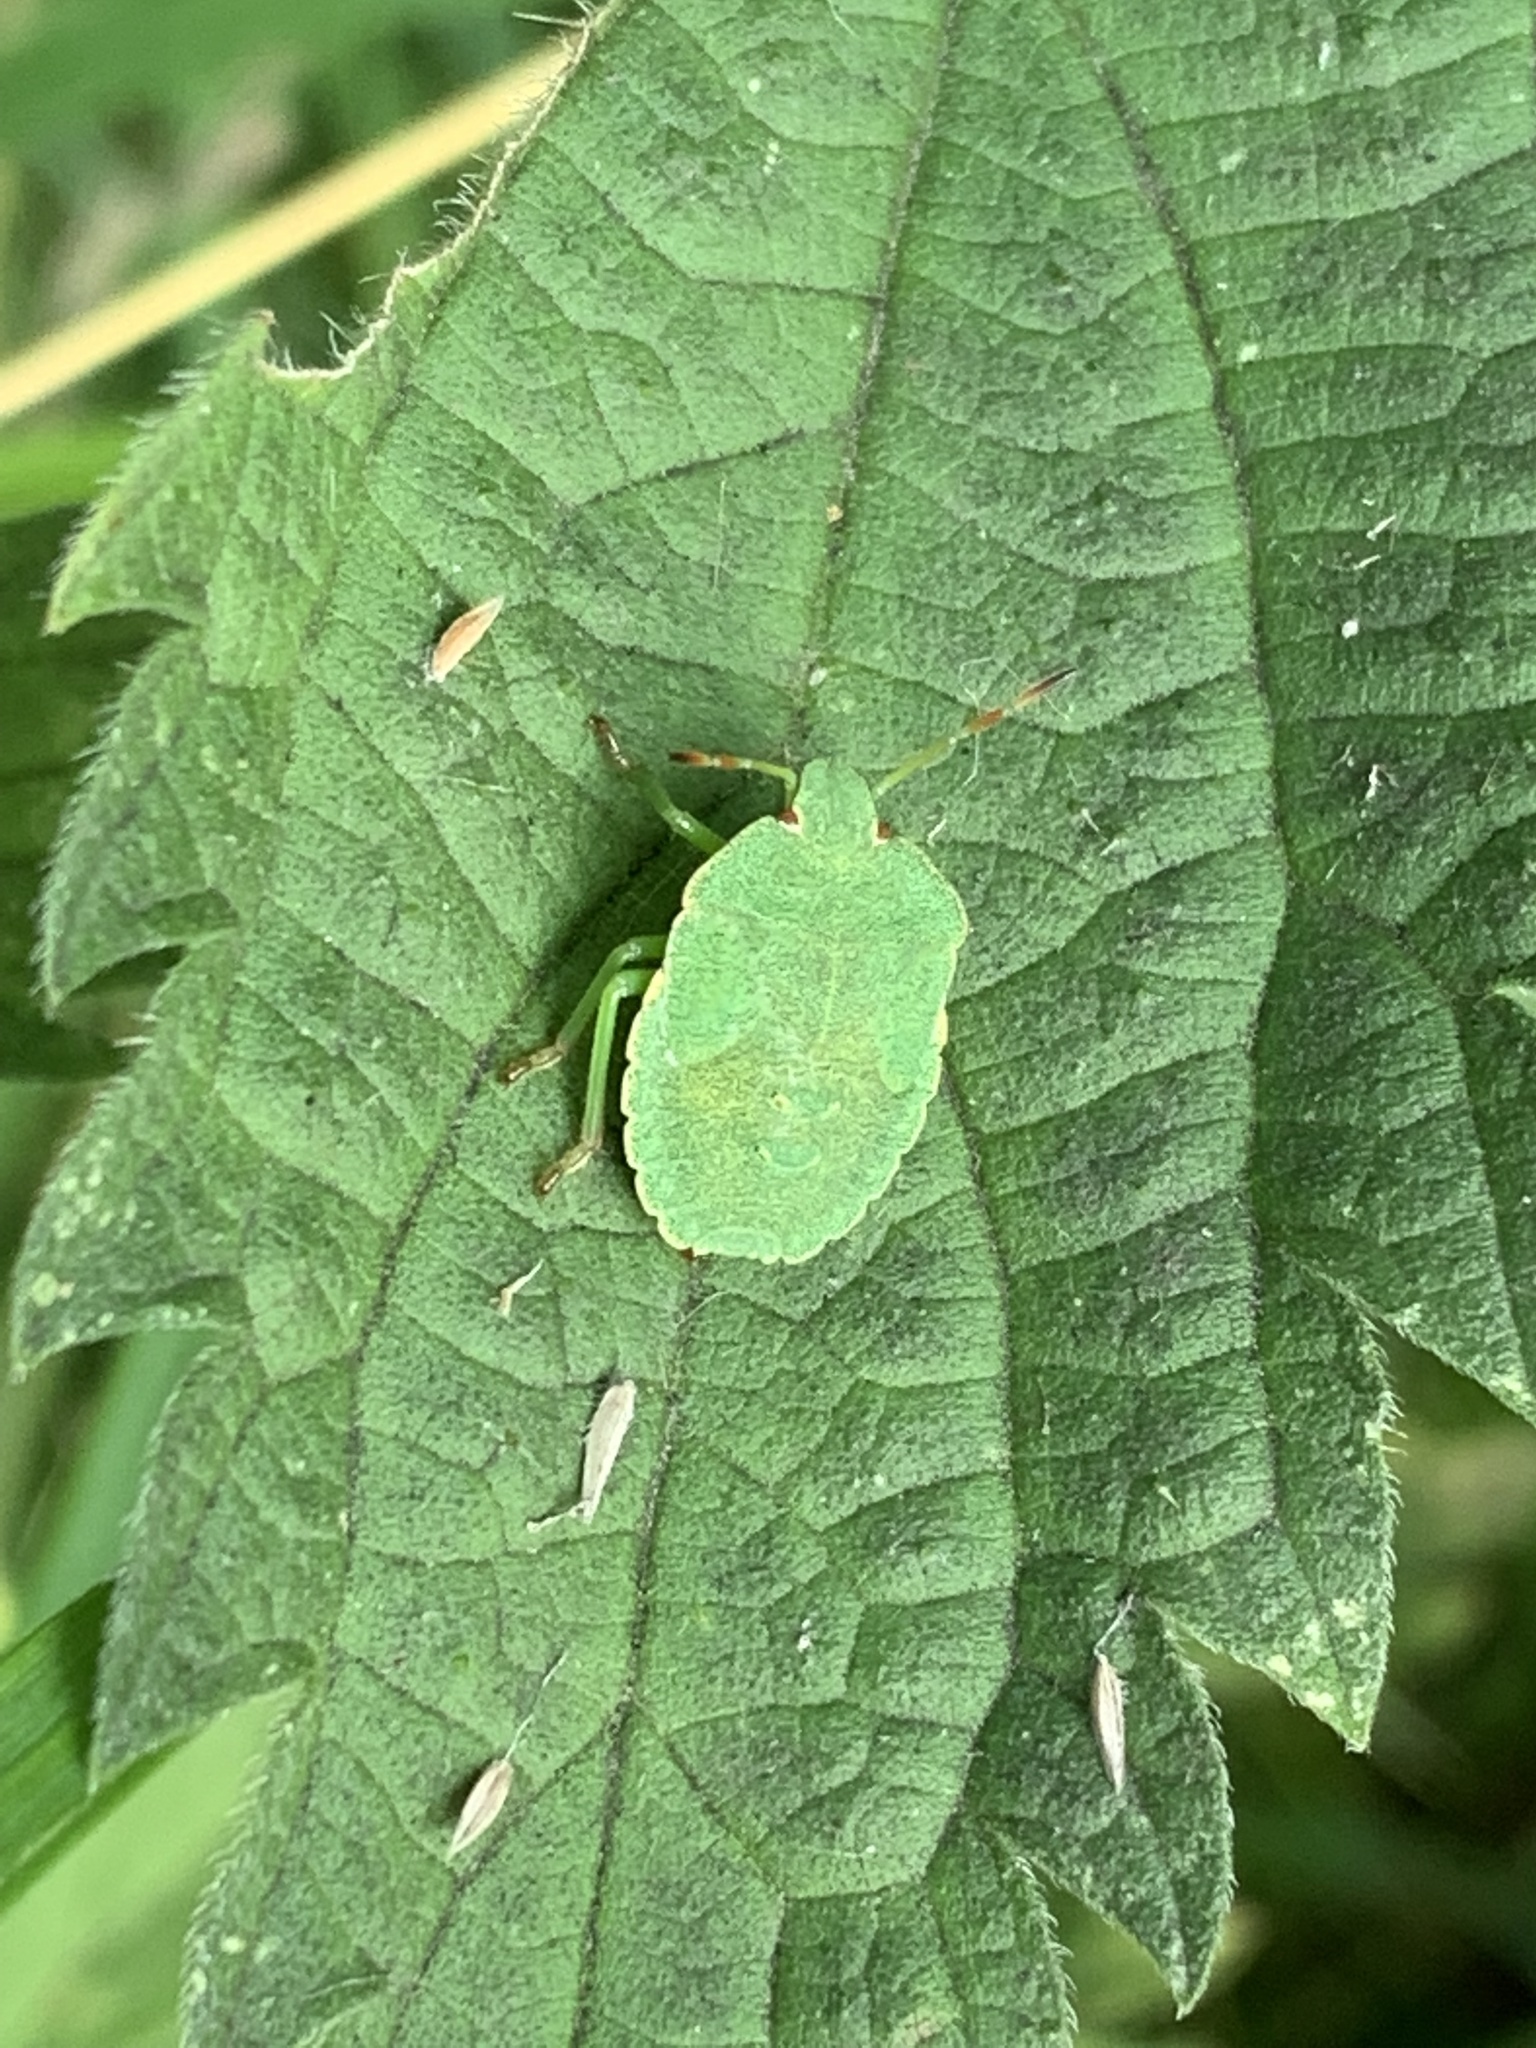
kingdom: Animalia
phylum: Arthropoda
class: Insecta
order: Hemiptera
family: Pentatomidae
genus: Palomena
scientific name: Palomena prasina
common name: Green shieldbug
